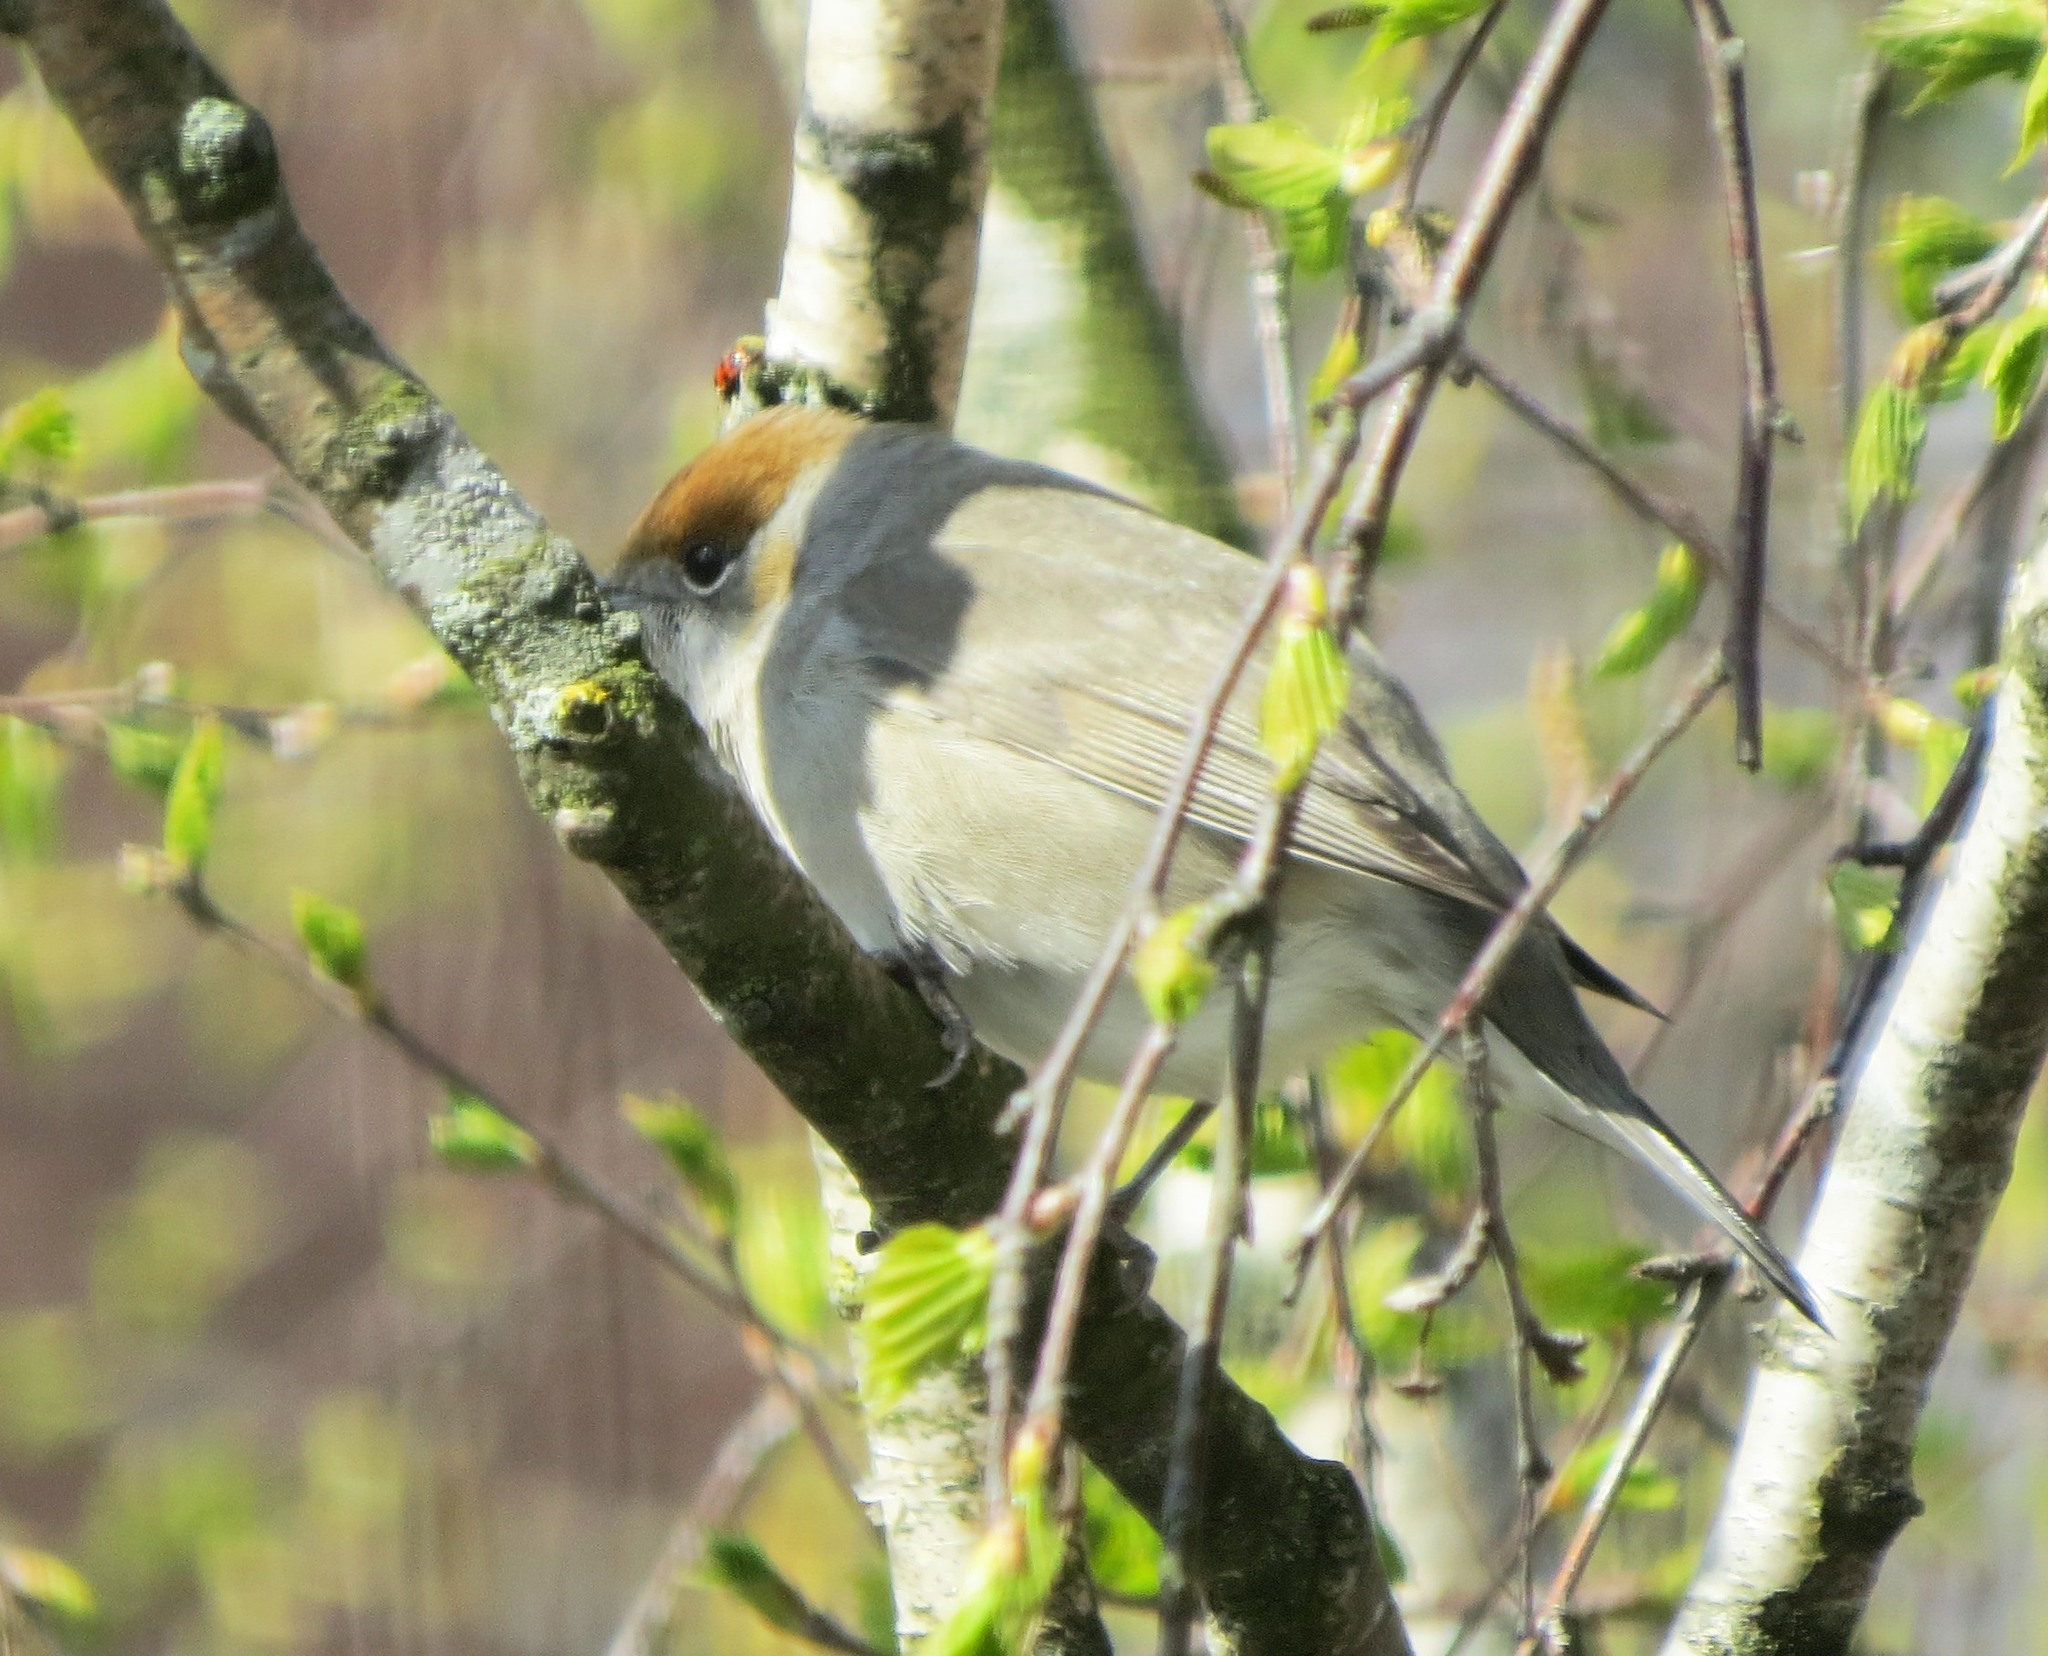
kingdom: Animalia
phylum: Chordata
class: Aves
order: Passeriformes
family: Sylviidae
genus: Sylvia
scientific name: Sylvia atricapilla
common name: Eurasian blackcap
